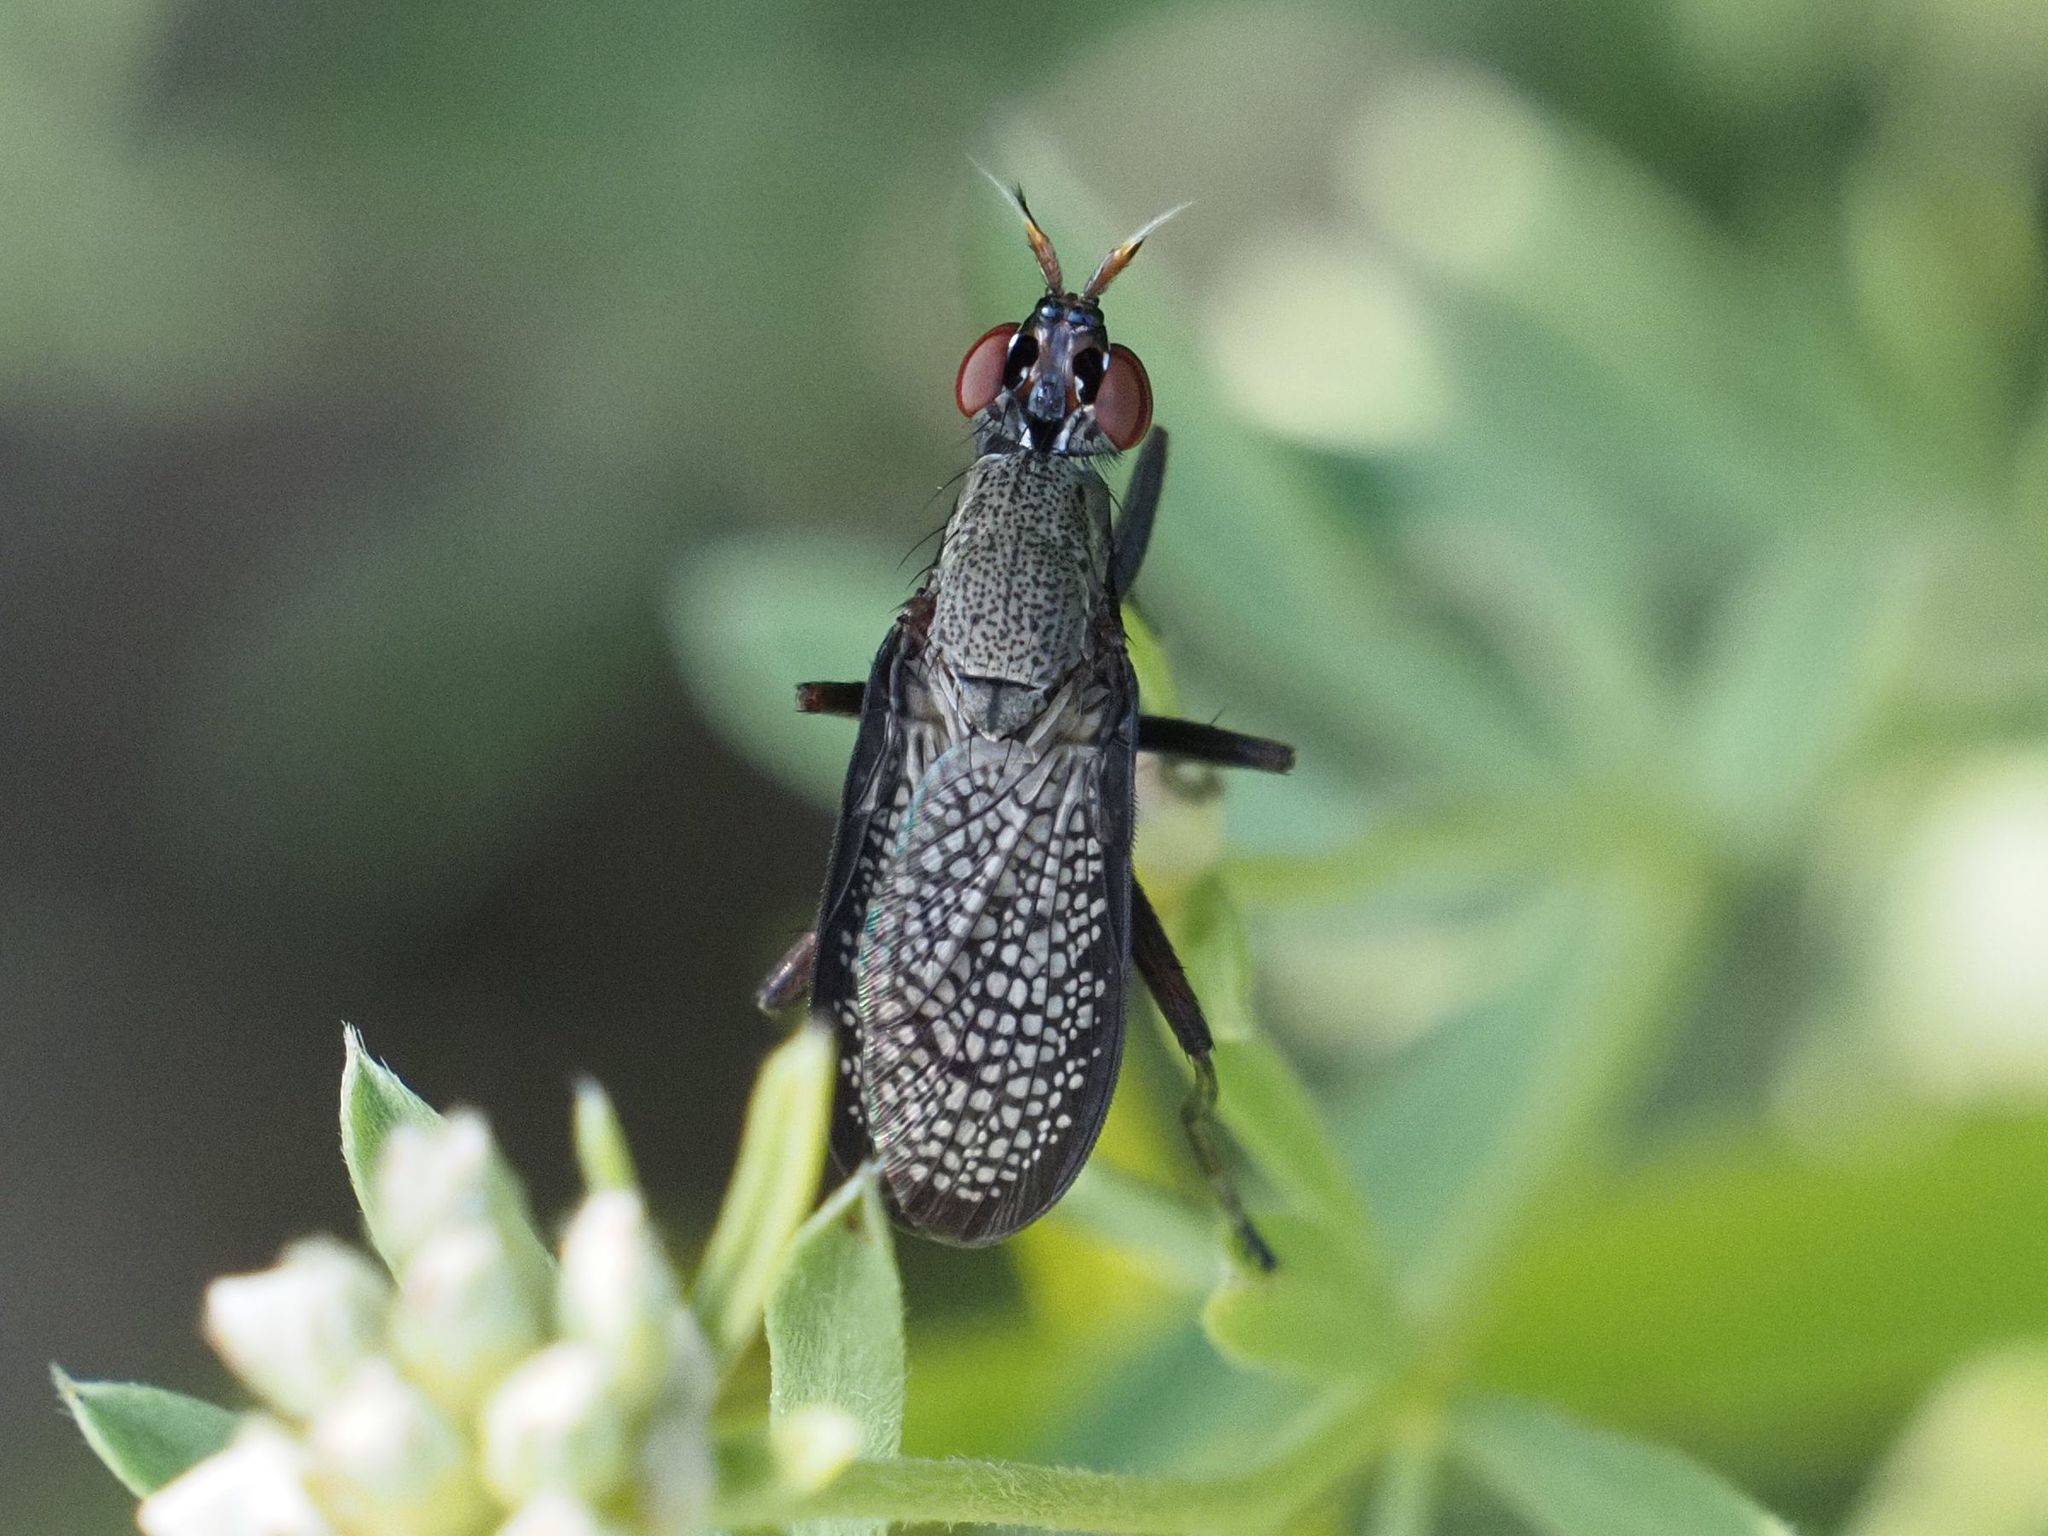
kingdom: Animalia
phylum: Arthropoda
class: Insecta
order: Diptera
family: Sciomyzidae
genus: Coremacera
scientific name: Coremacera marginata
